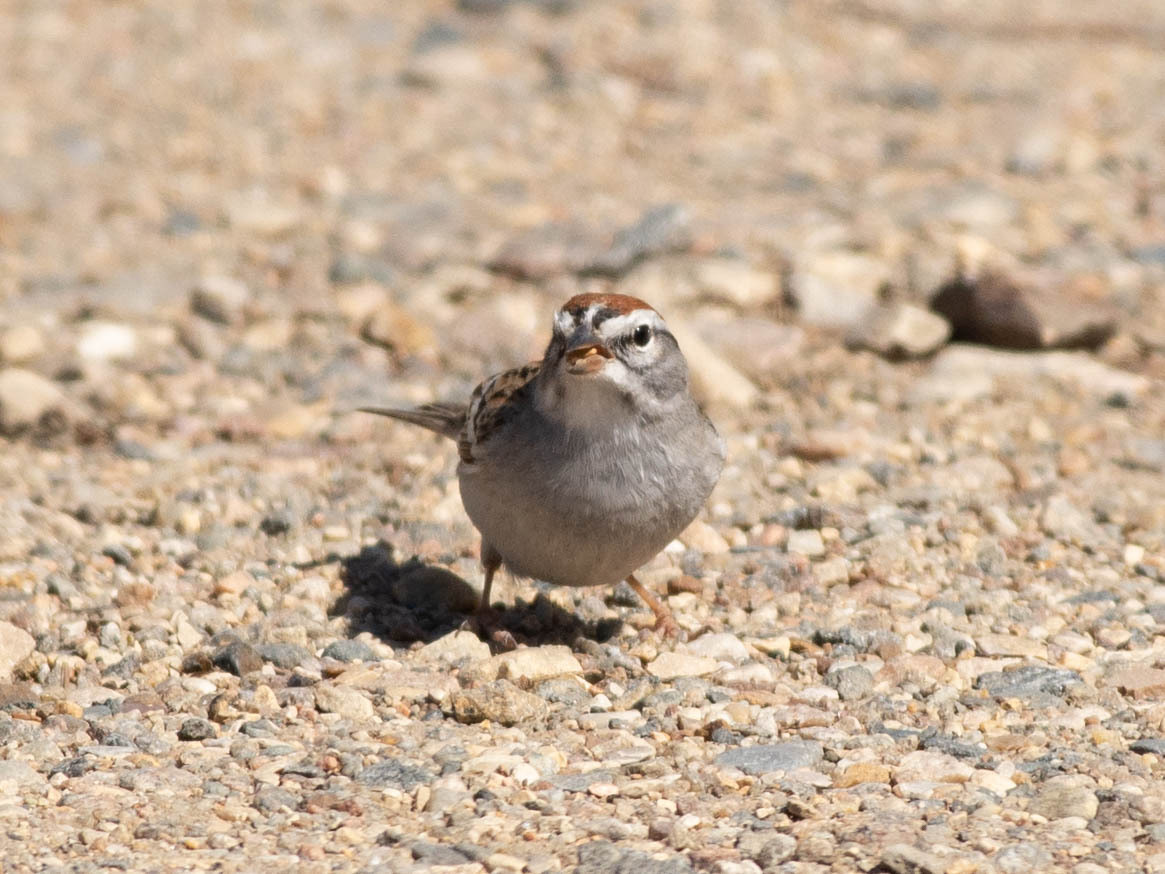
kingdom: Animalia
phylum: Chordata
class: Aves
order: Passeriformes
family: Passerellidae
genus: Spizella
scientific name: Spizella passerina
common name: Chipping sparrow
